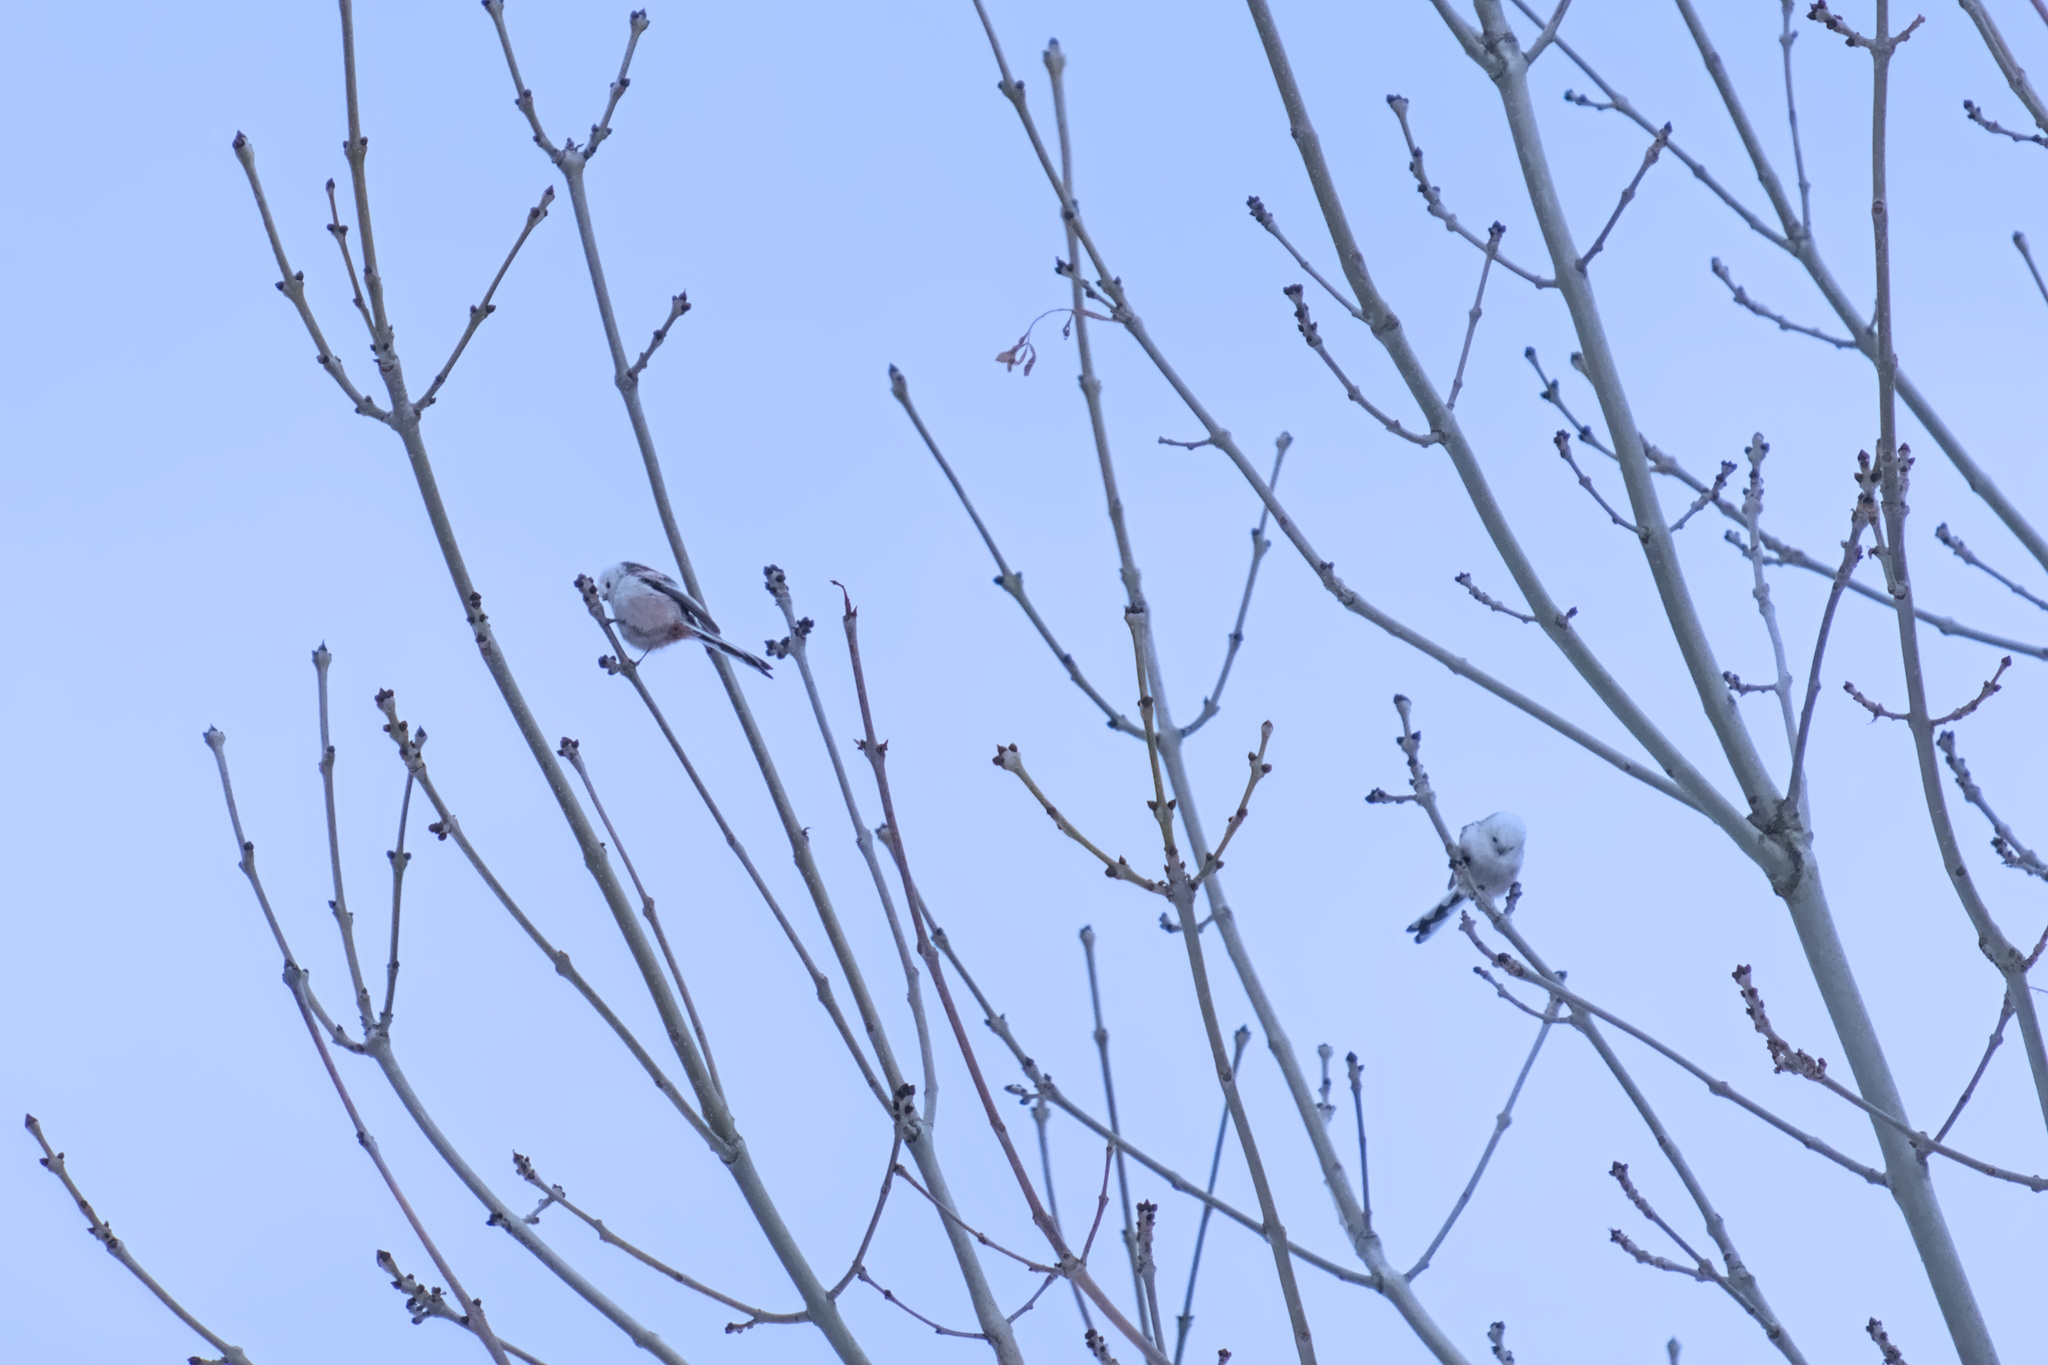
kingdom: Animalia
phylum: Chordata
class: Aves
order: Passeriformes
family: Aegithalidae
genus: Aegithalos
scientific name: Aegithalos caudatus
